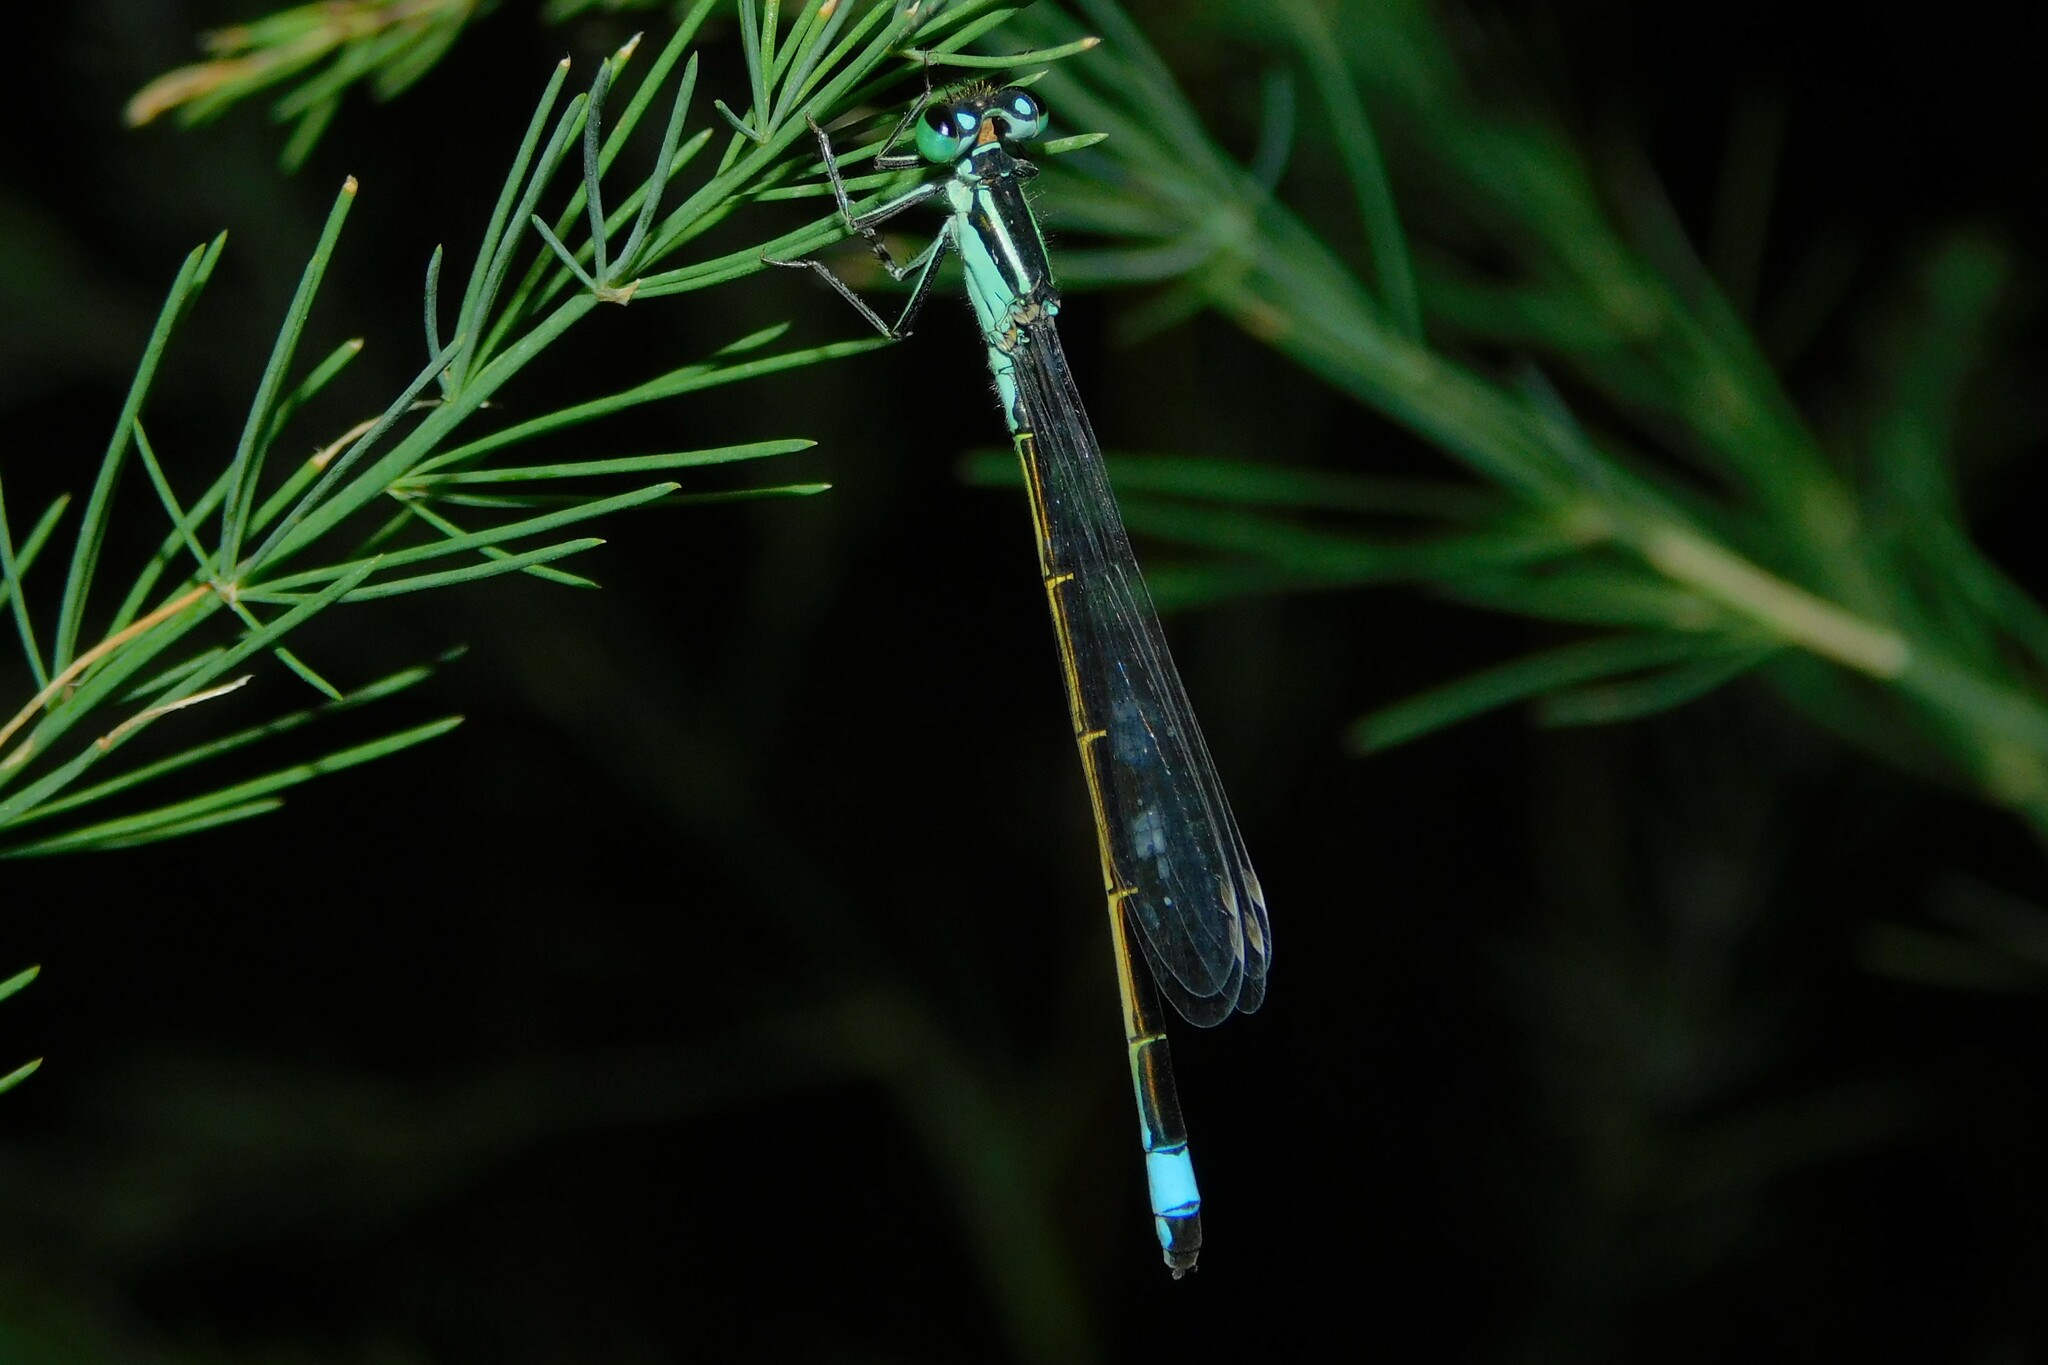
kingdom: Animalia
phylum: Arthropoda
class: Insecta
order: Odonata
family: Coenagrionidae
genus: Ischnura
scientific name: Ischnura elegans
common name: Blue-tailed damselfly
